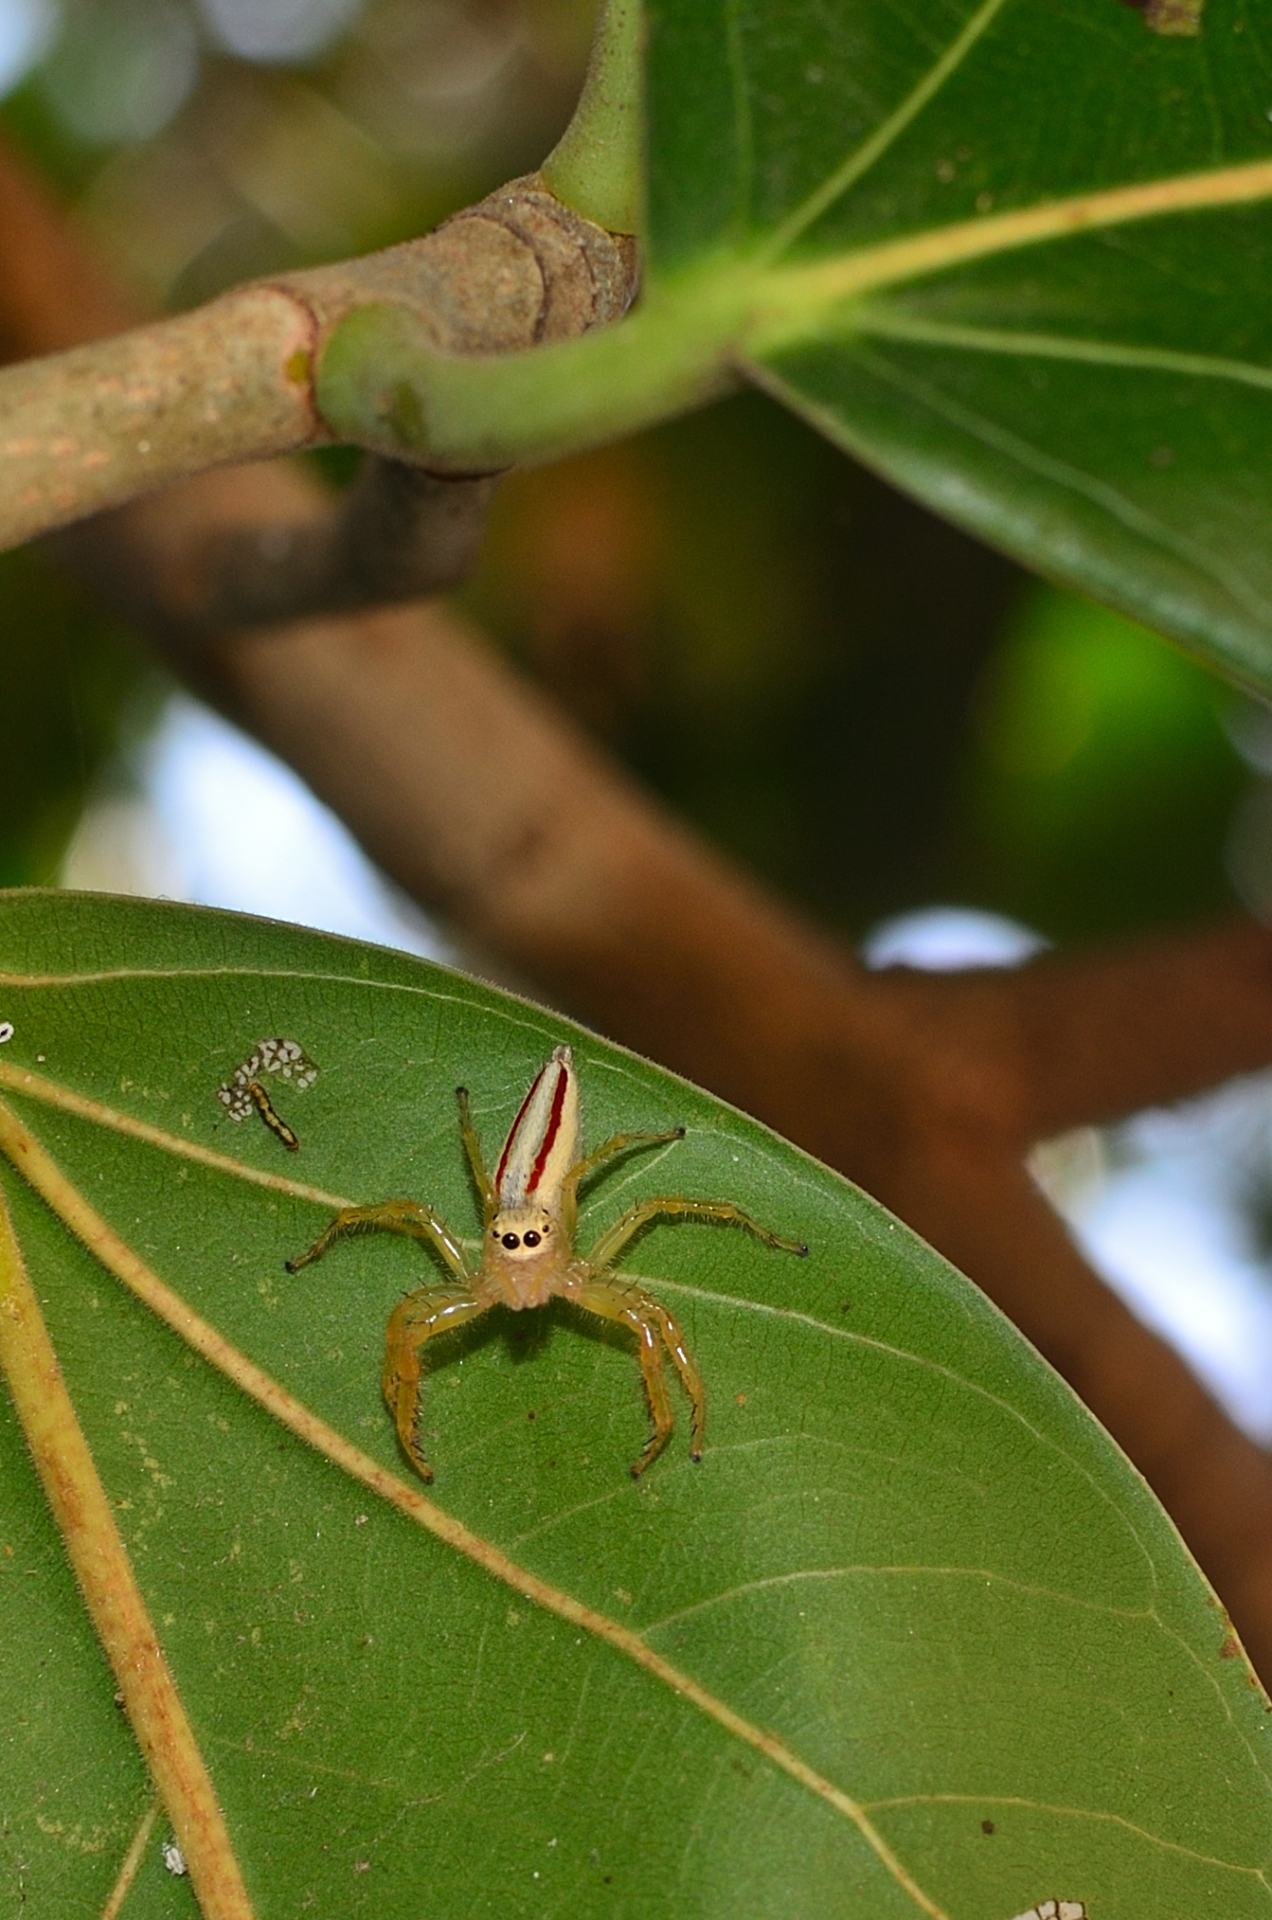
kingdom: Animalia
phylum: Arthropoda
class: Arachnida
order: Araneae
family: Salticidae
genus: Telamonia
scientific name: Telamonia dimidiata
